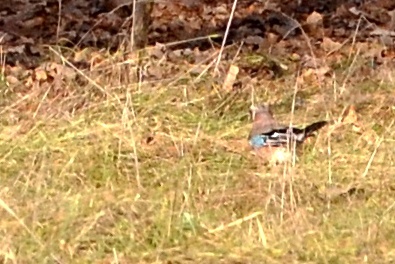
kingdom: Animalia
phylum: Chordata
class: Aves
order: Passeriformes
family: Corvidae
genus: Garrulus
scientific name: Garrulus glandarius
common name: Eurasian jay
